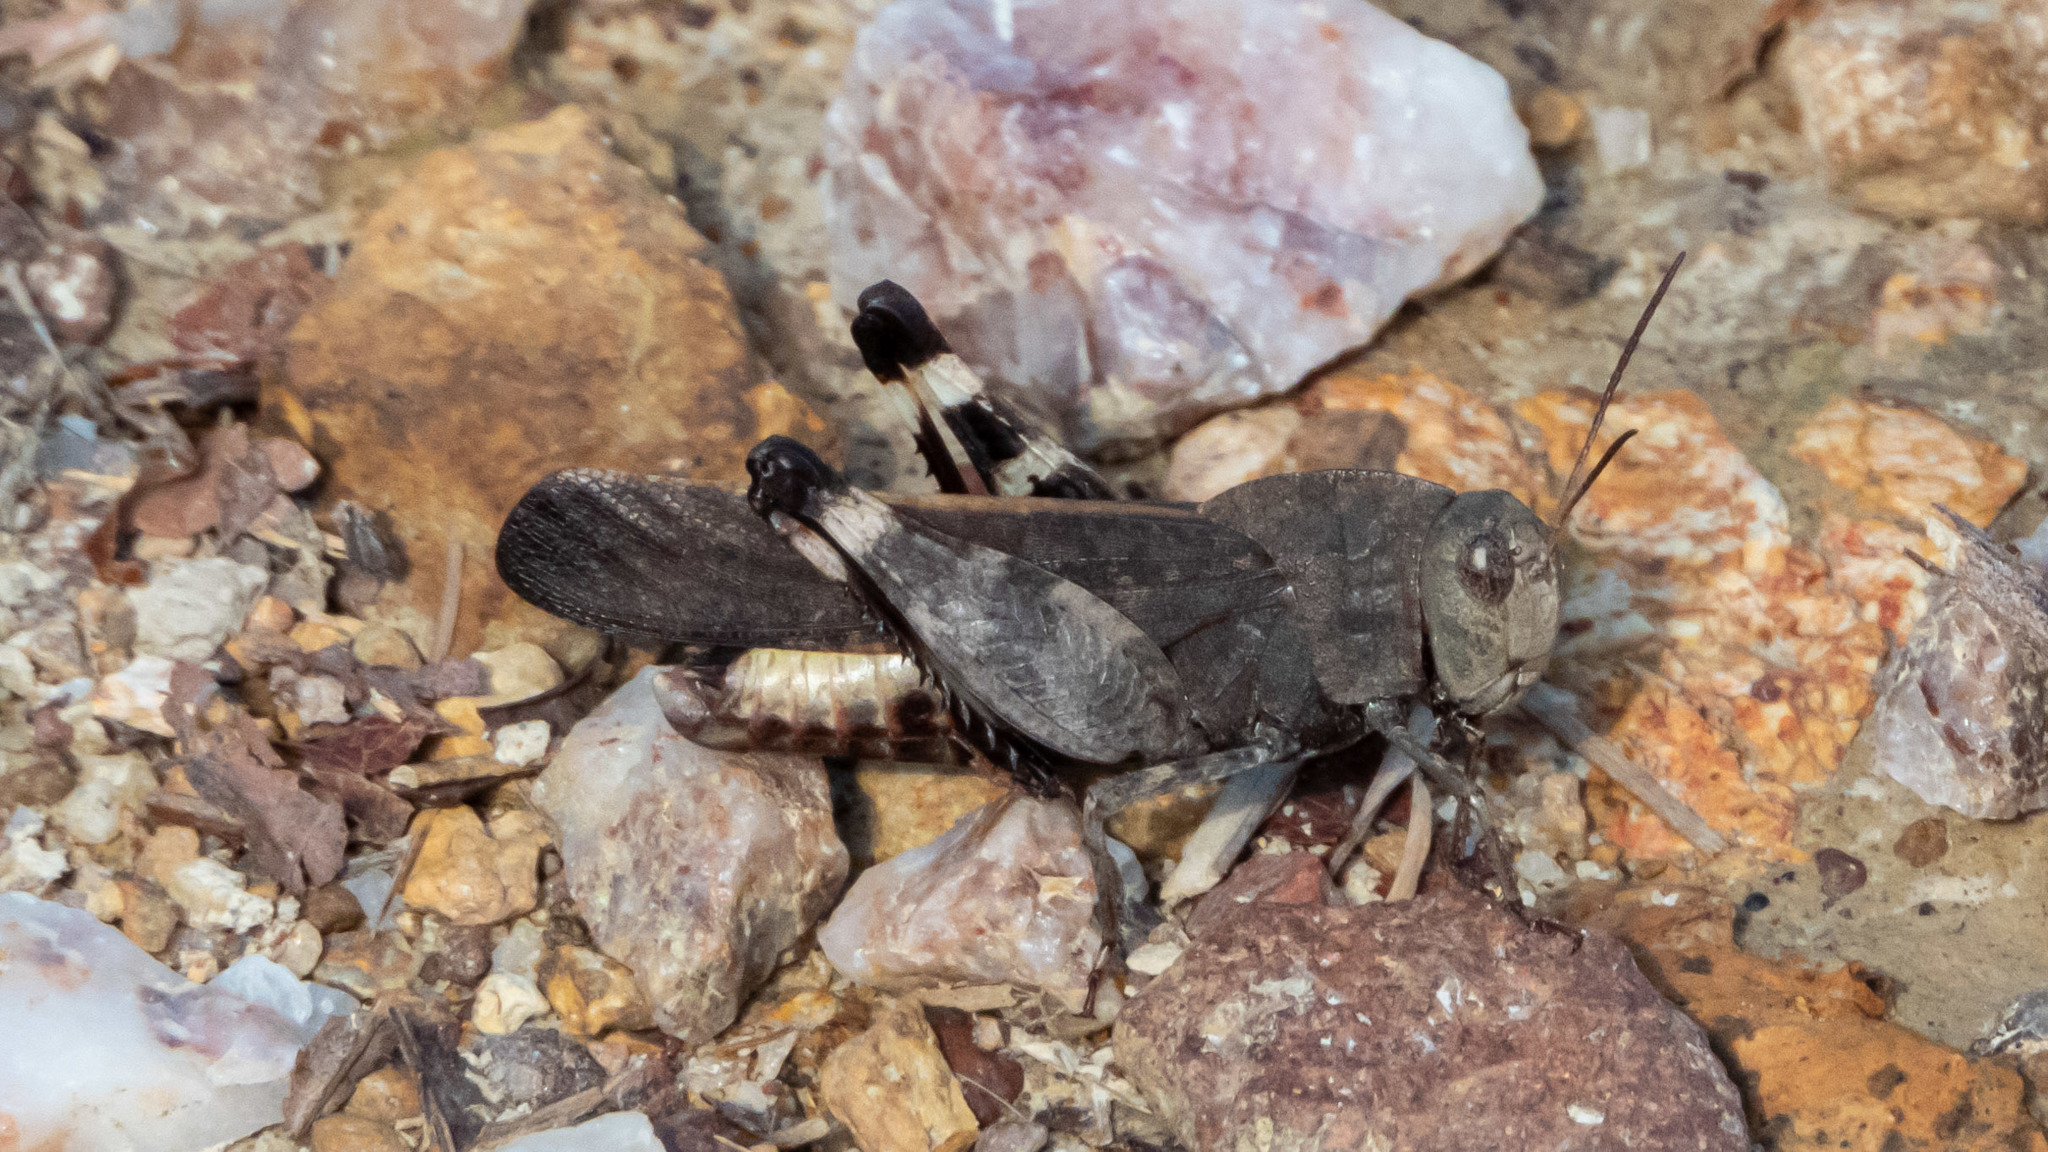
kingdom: Animalia
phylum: Arthropoda
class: Insecta
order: Orthoptera
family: Acrididae
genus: Arphia
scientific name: Arphia xanthoptera
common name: Autumn yellow-winged grasshopper
